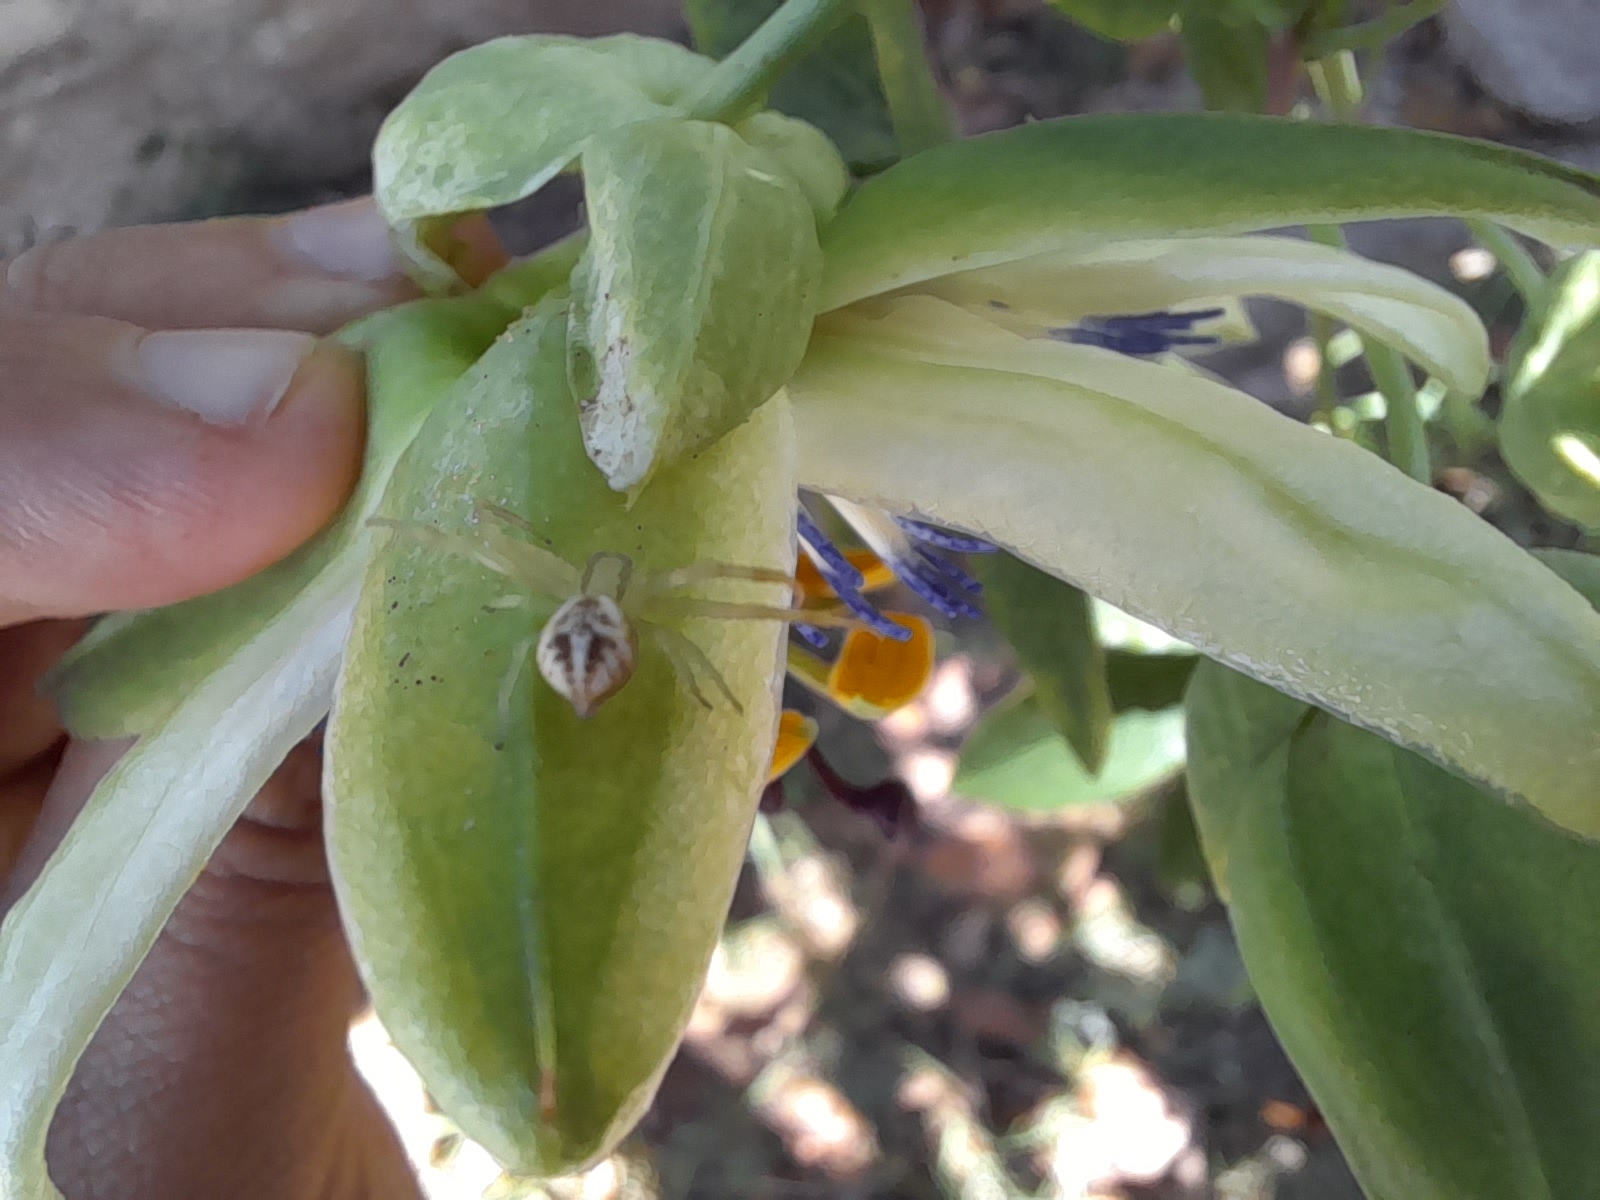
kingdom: Animalia
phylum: Arthropoda
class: Arachnida
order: Araneae
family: Thomisidae
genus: Misumenops
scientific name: Misumenops
